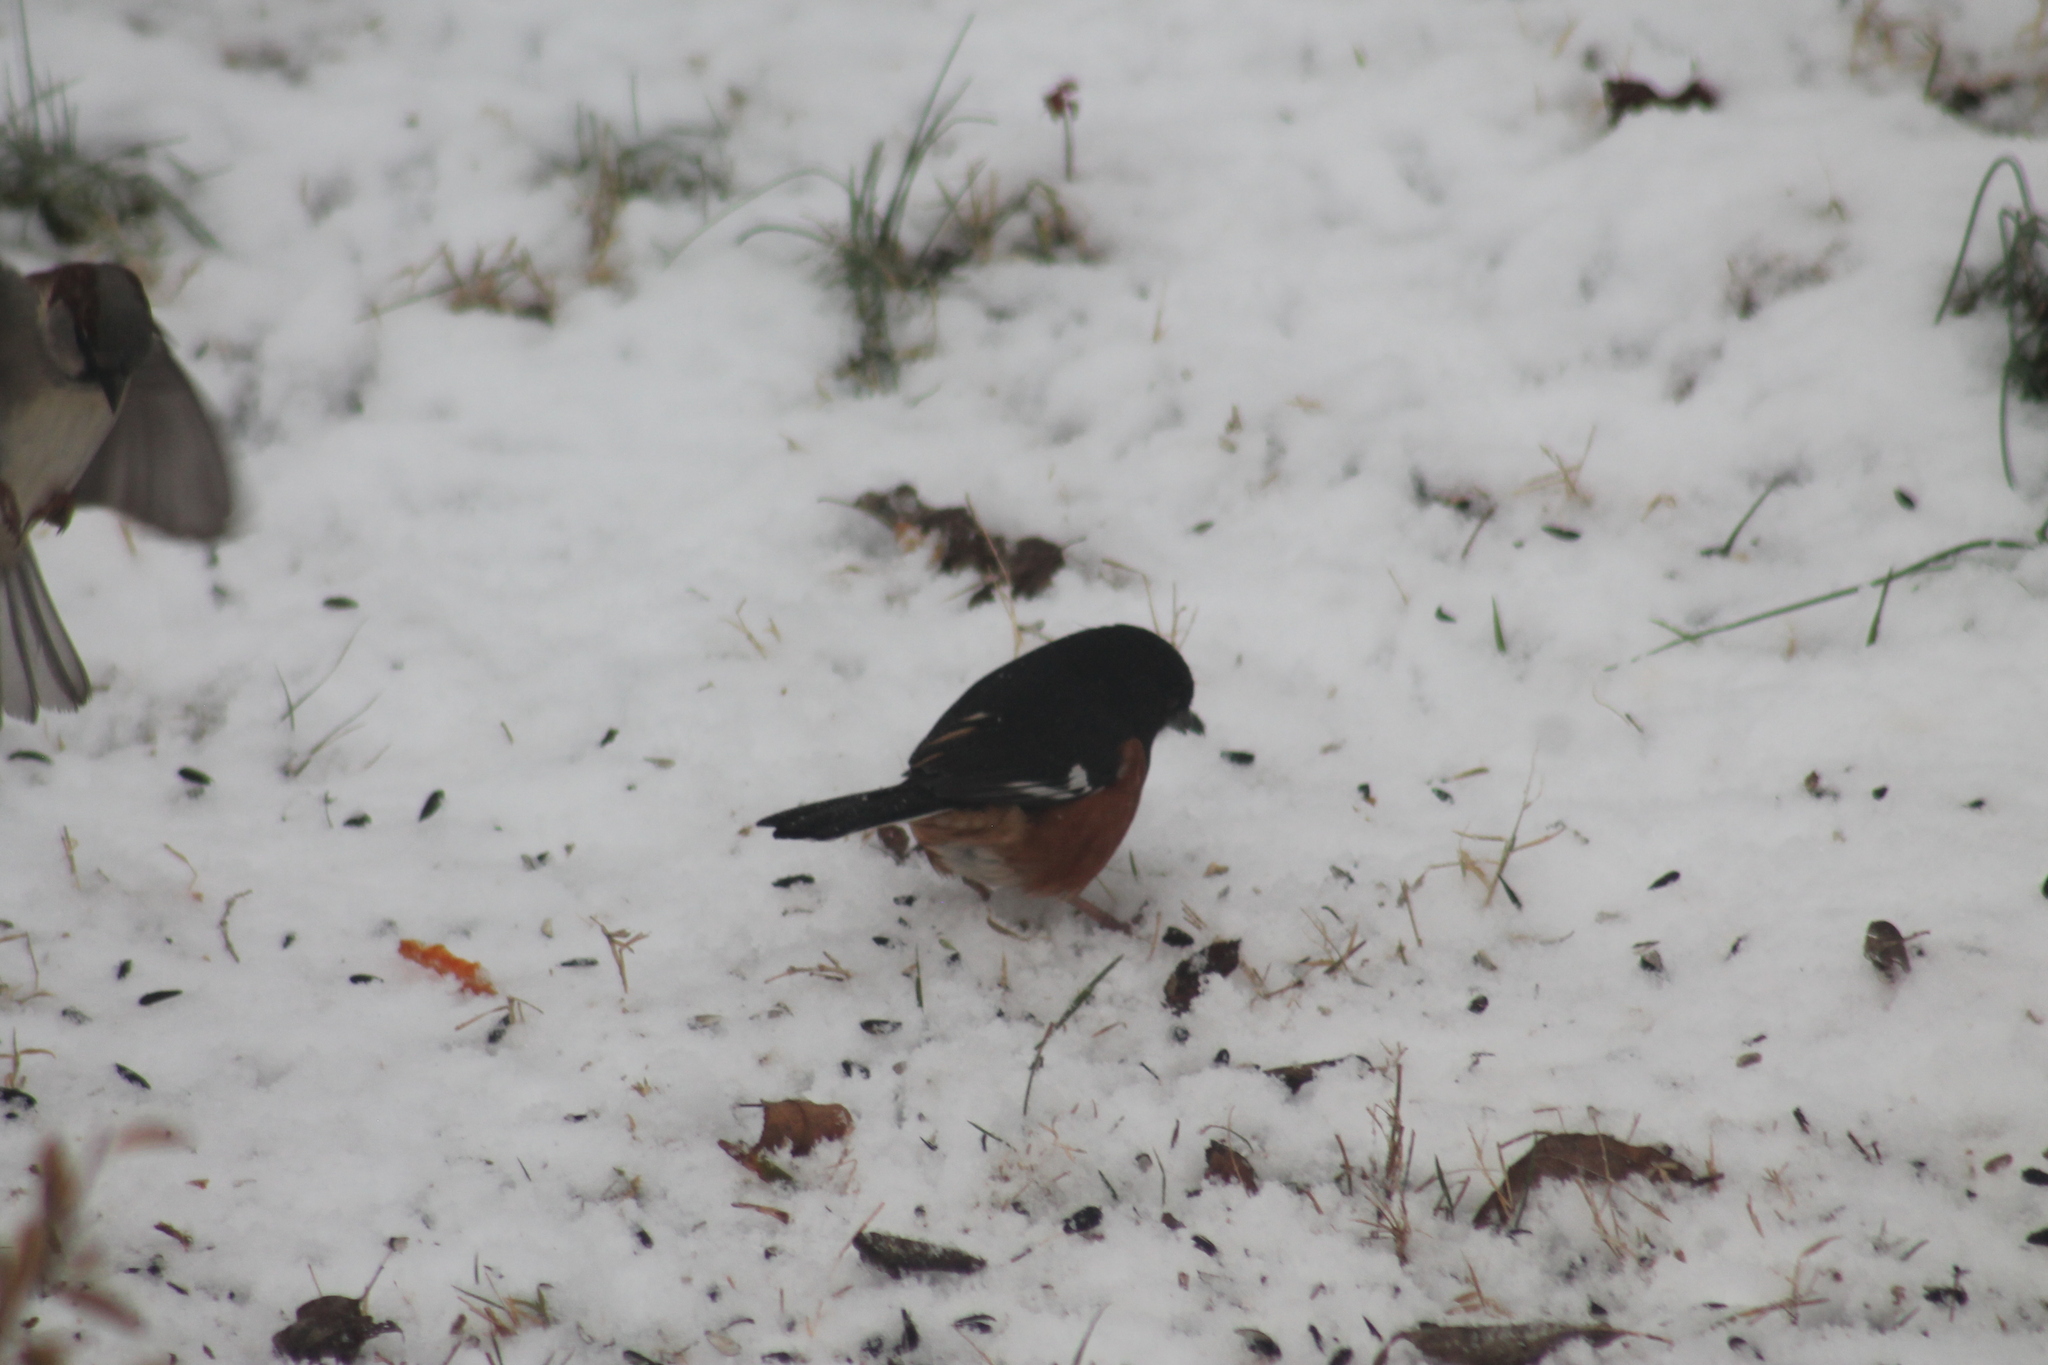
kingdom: Animalia
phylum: Chordata
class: Aves
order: Passeriformes
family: Passerellidae
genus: Pipilo
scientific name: Pipilo erythrophthalmus
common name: Eastern towhee
